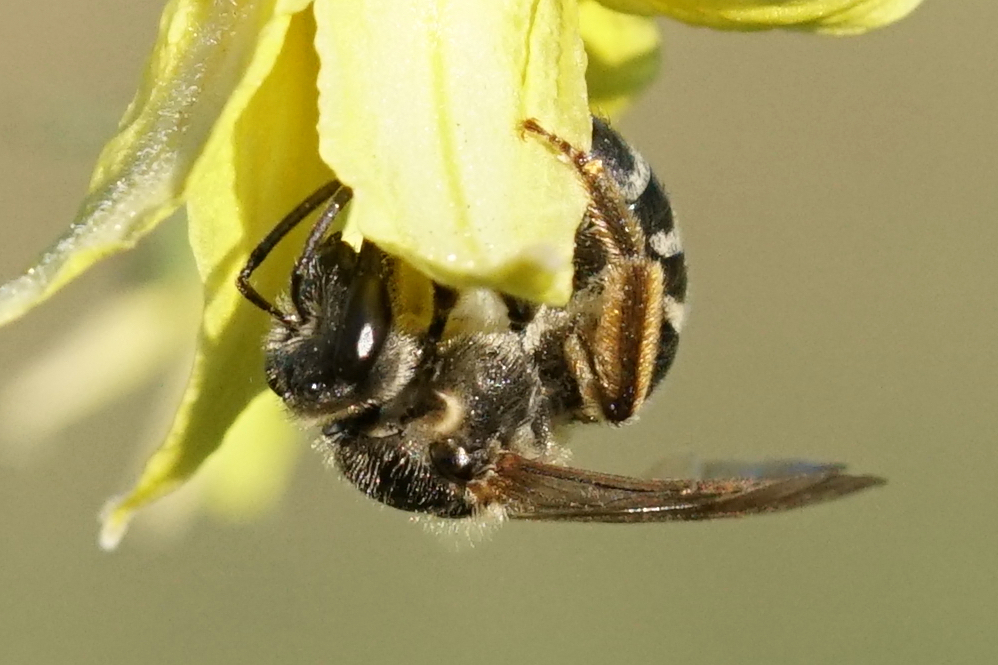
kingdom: Animalia
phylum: Arthropoda
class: Insecta
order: Hymenoptera
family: Halictidae
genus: Lasioglossum
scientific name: Lasioglossum
